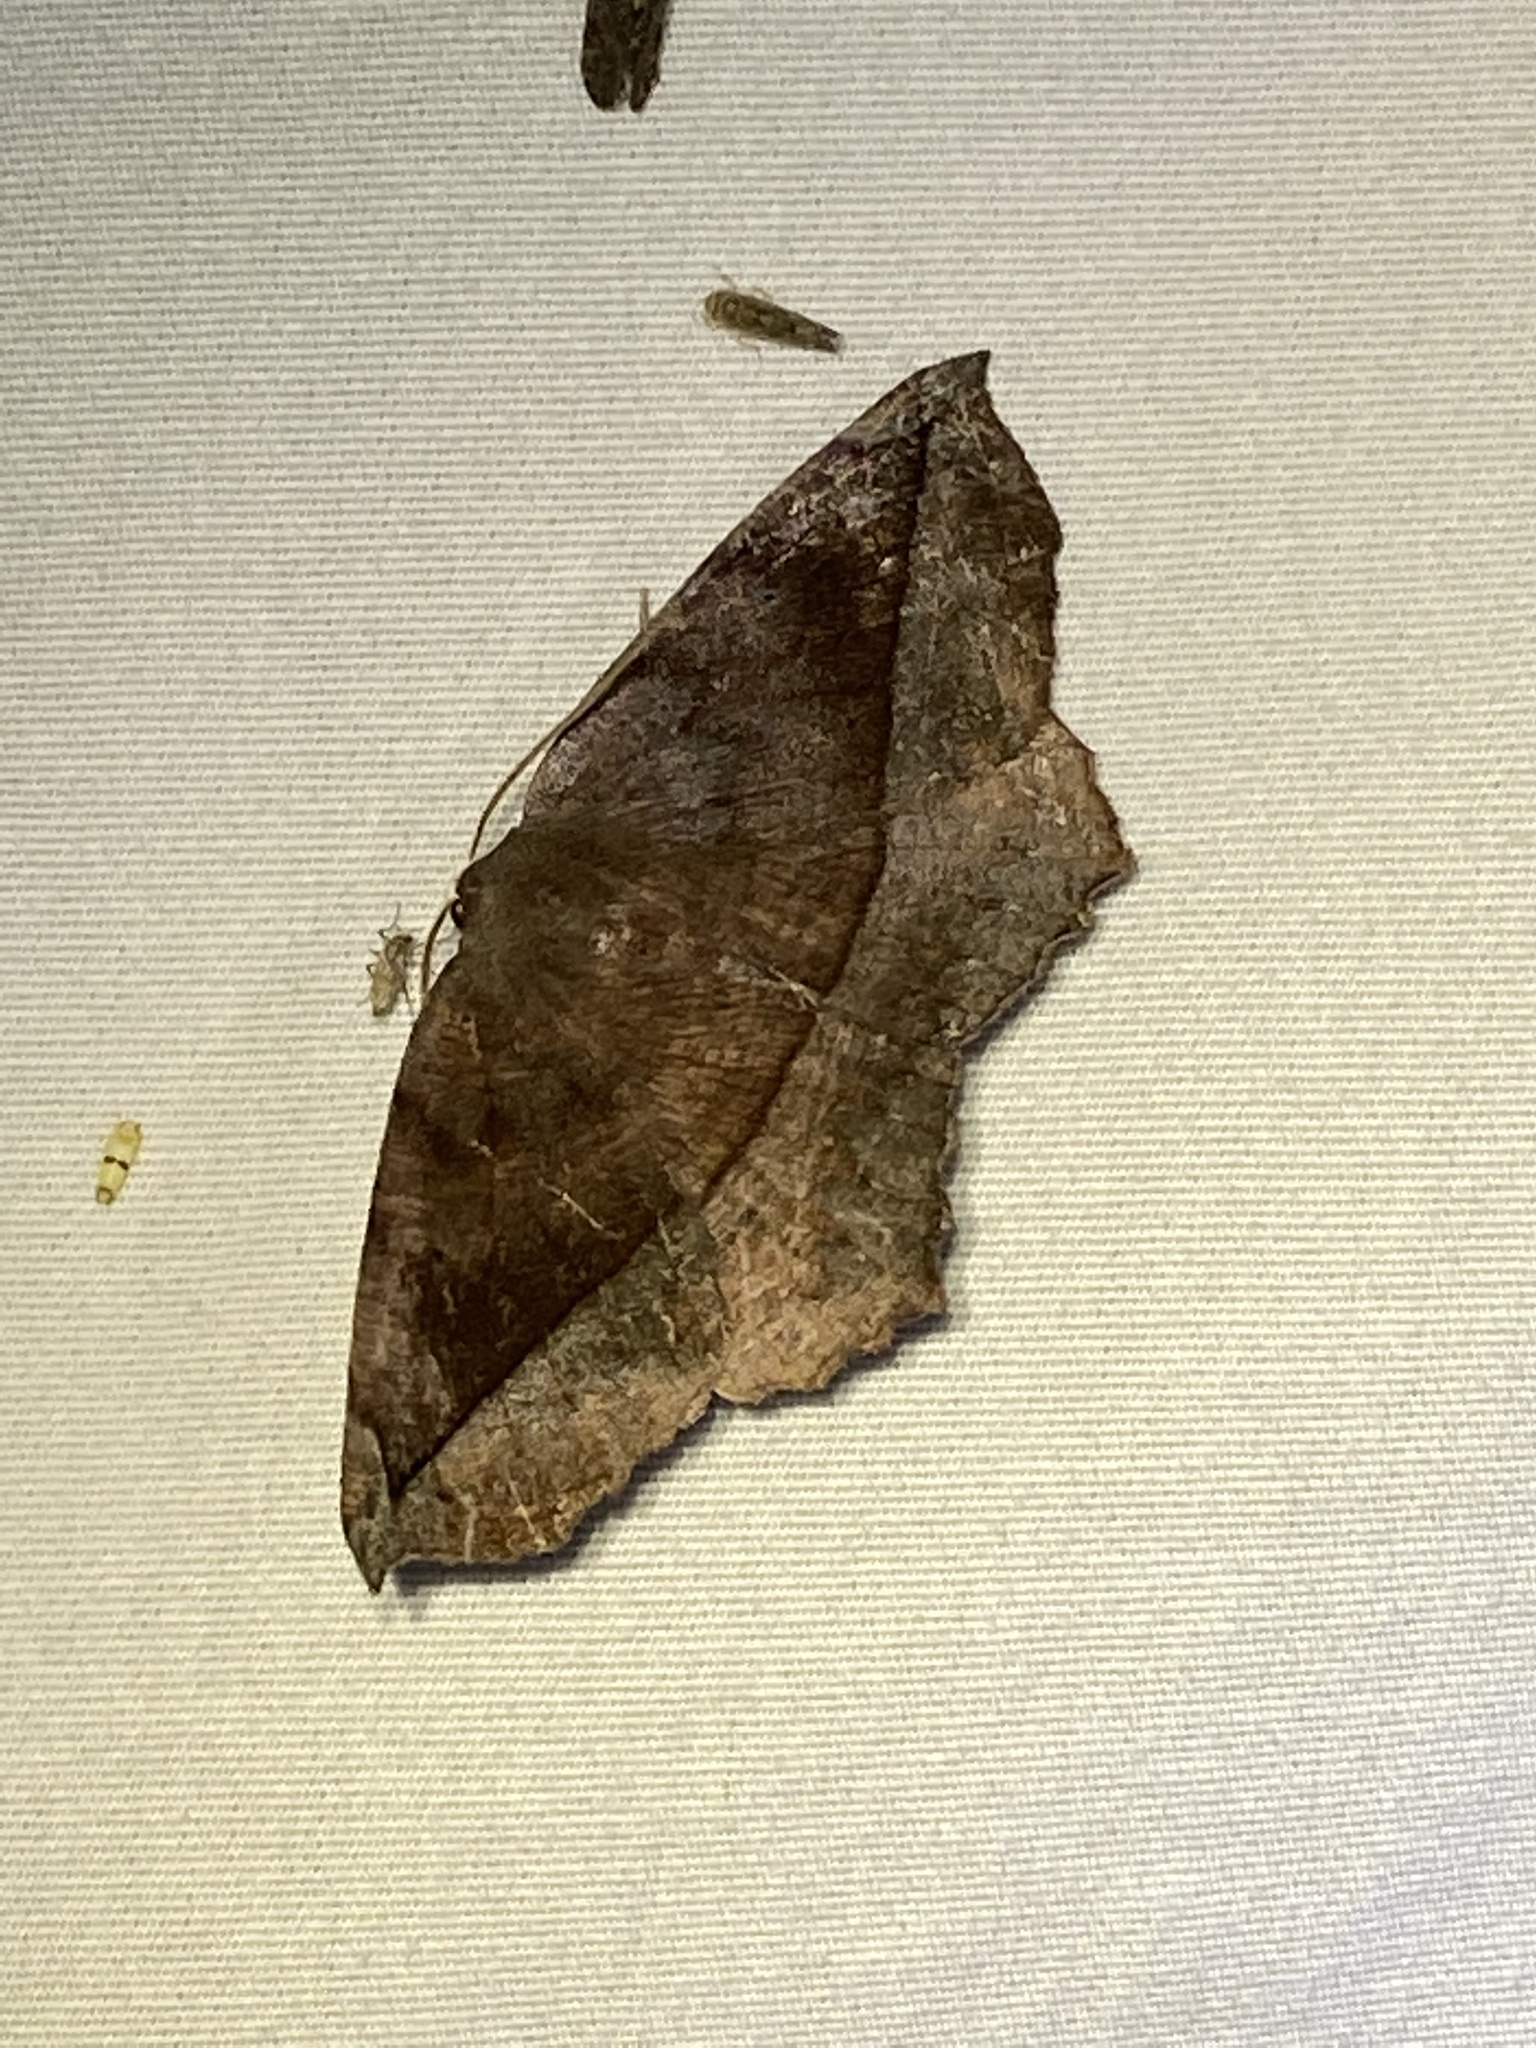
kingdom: Animalia
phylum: Arthropoda
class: Insecta
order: Lepidoptera
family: Geometridae
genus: Eutrapela
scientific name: Eutrapela clemataria
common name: Curved-toothed geometer
